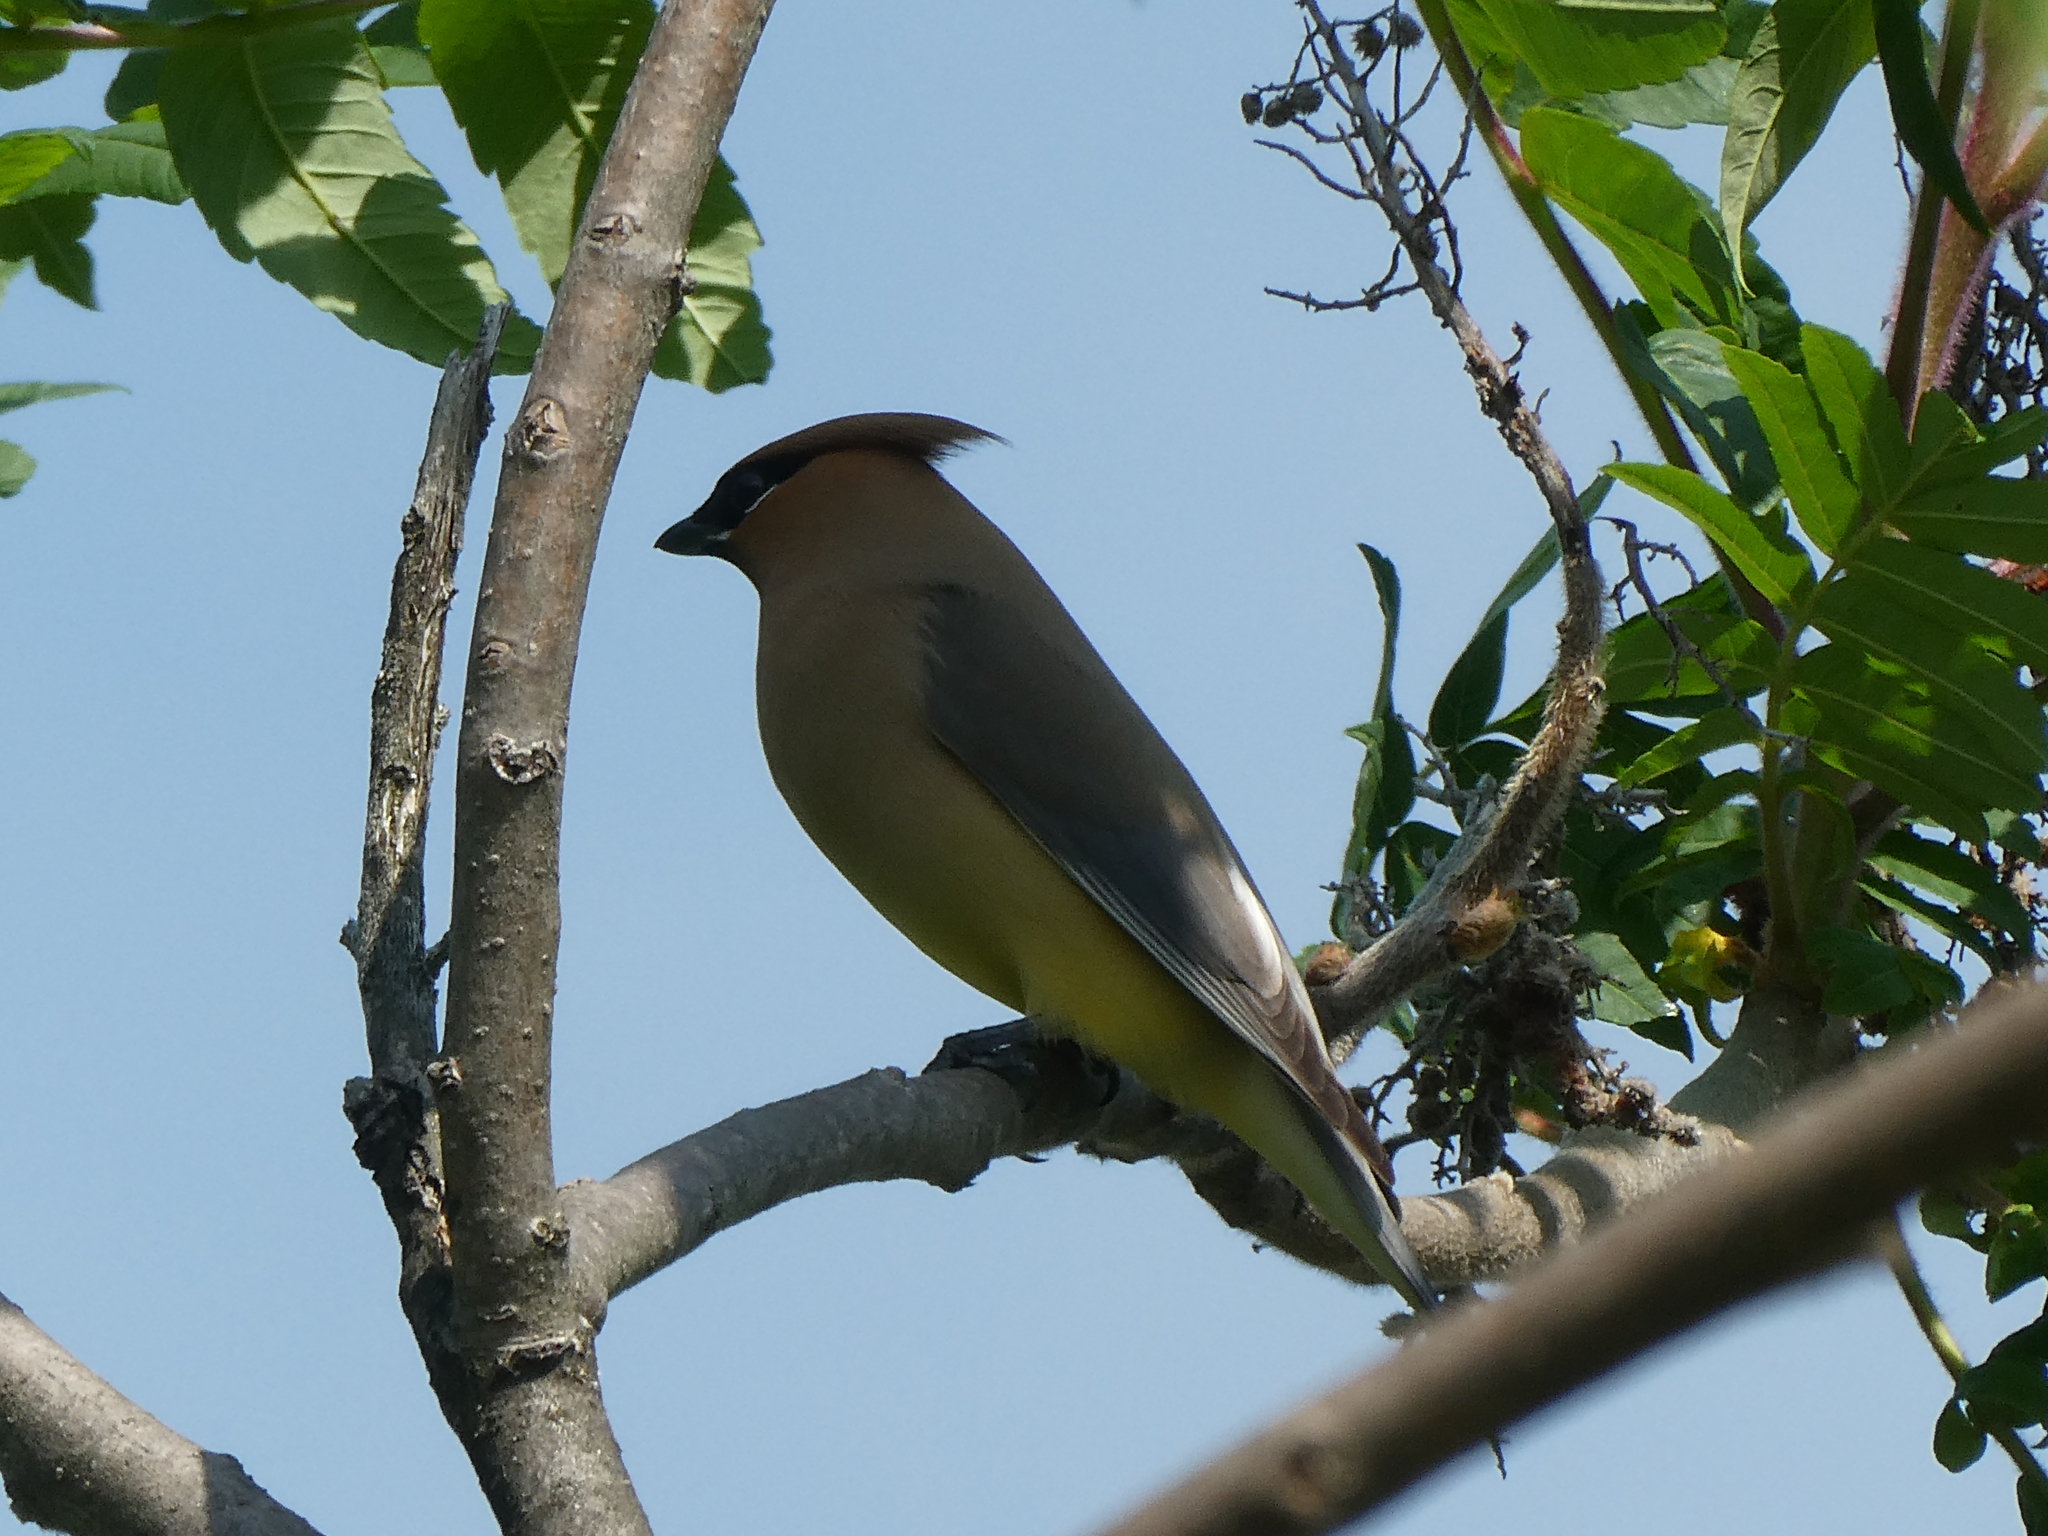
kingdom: Animalia
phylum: Chordata
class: Aves
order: Passeriformes
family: Bombycillidae
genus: Bombycilla
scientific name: Bombycilla cedrorum
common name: Cedar waxwing
